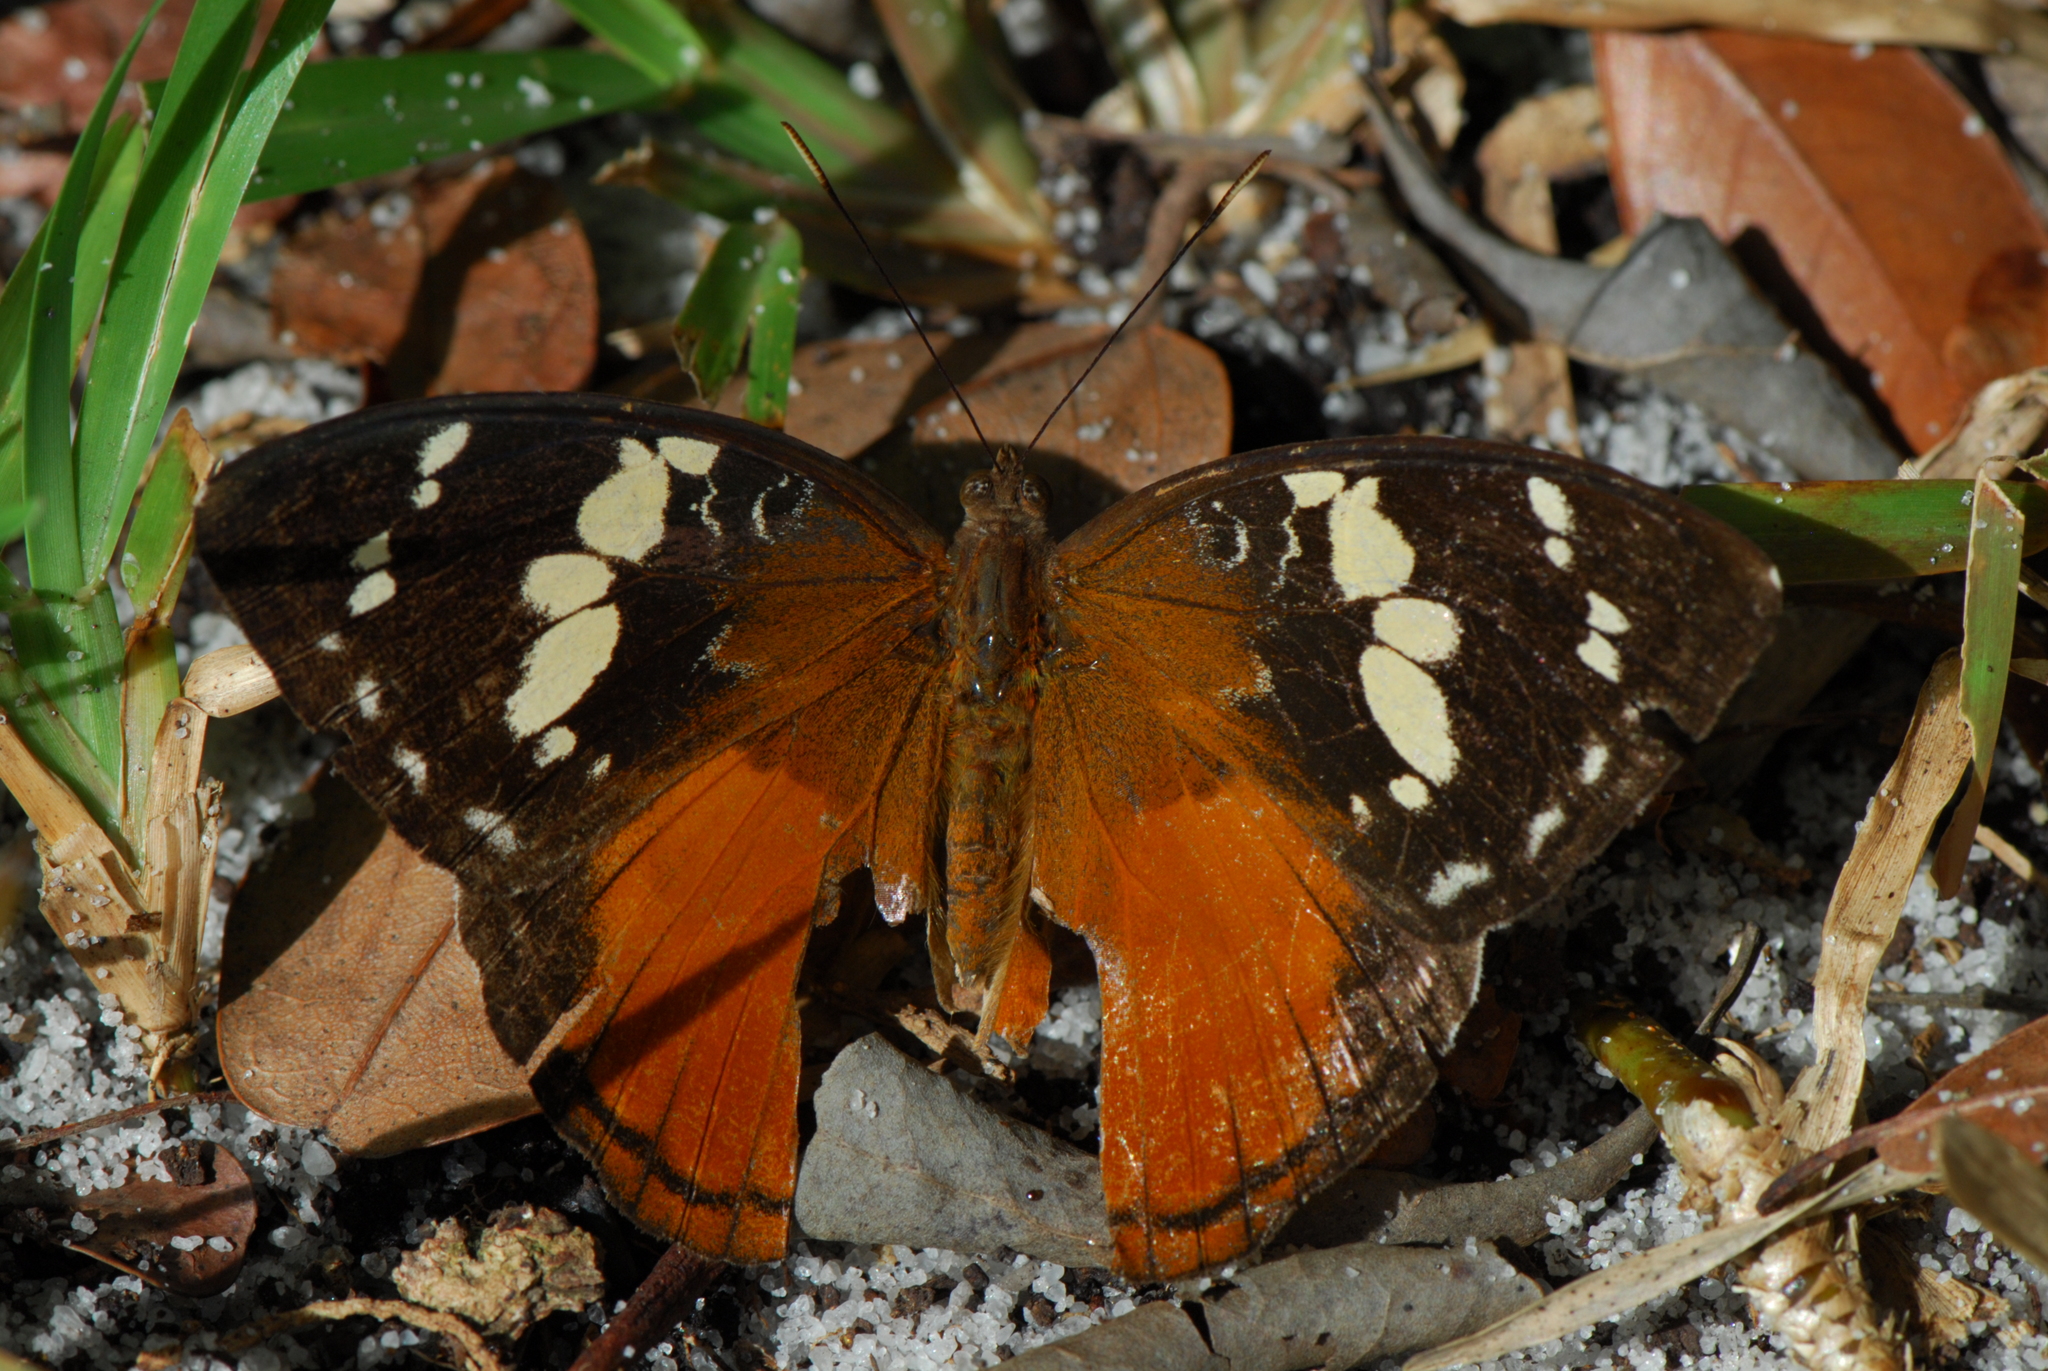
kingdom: Animalia
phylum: Arthropoda
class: Insecta
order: Lepidoptera
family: Nymphalidae
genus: Aterica
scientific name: Aterica rabena
